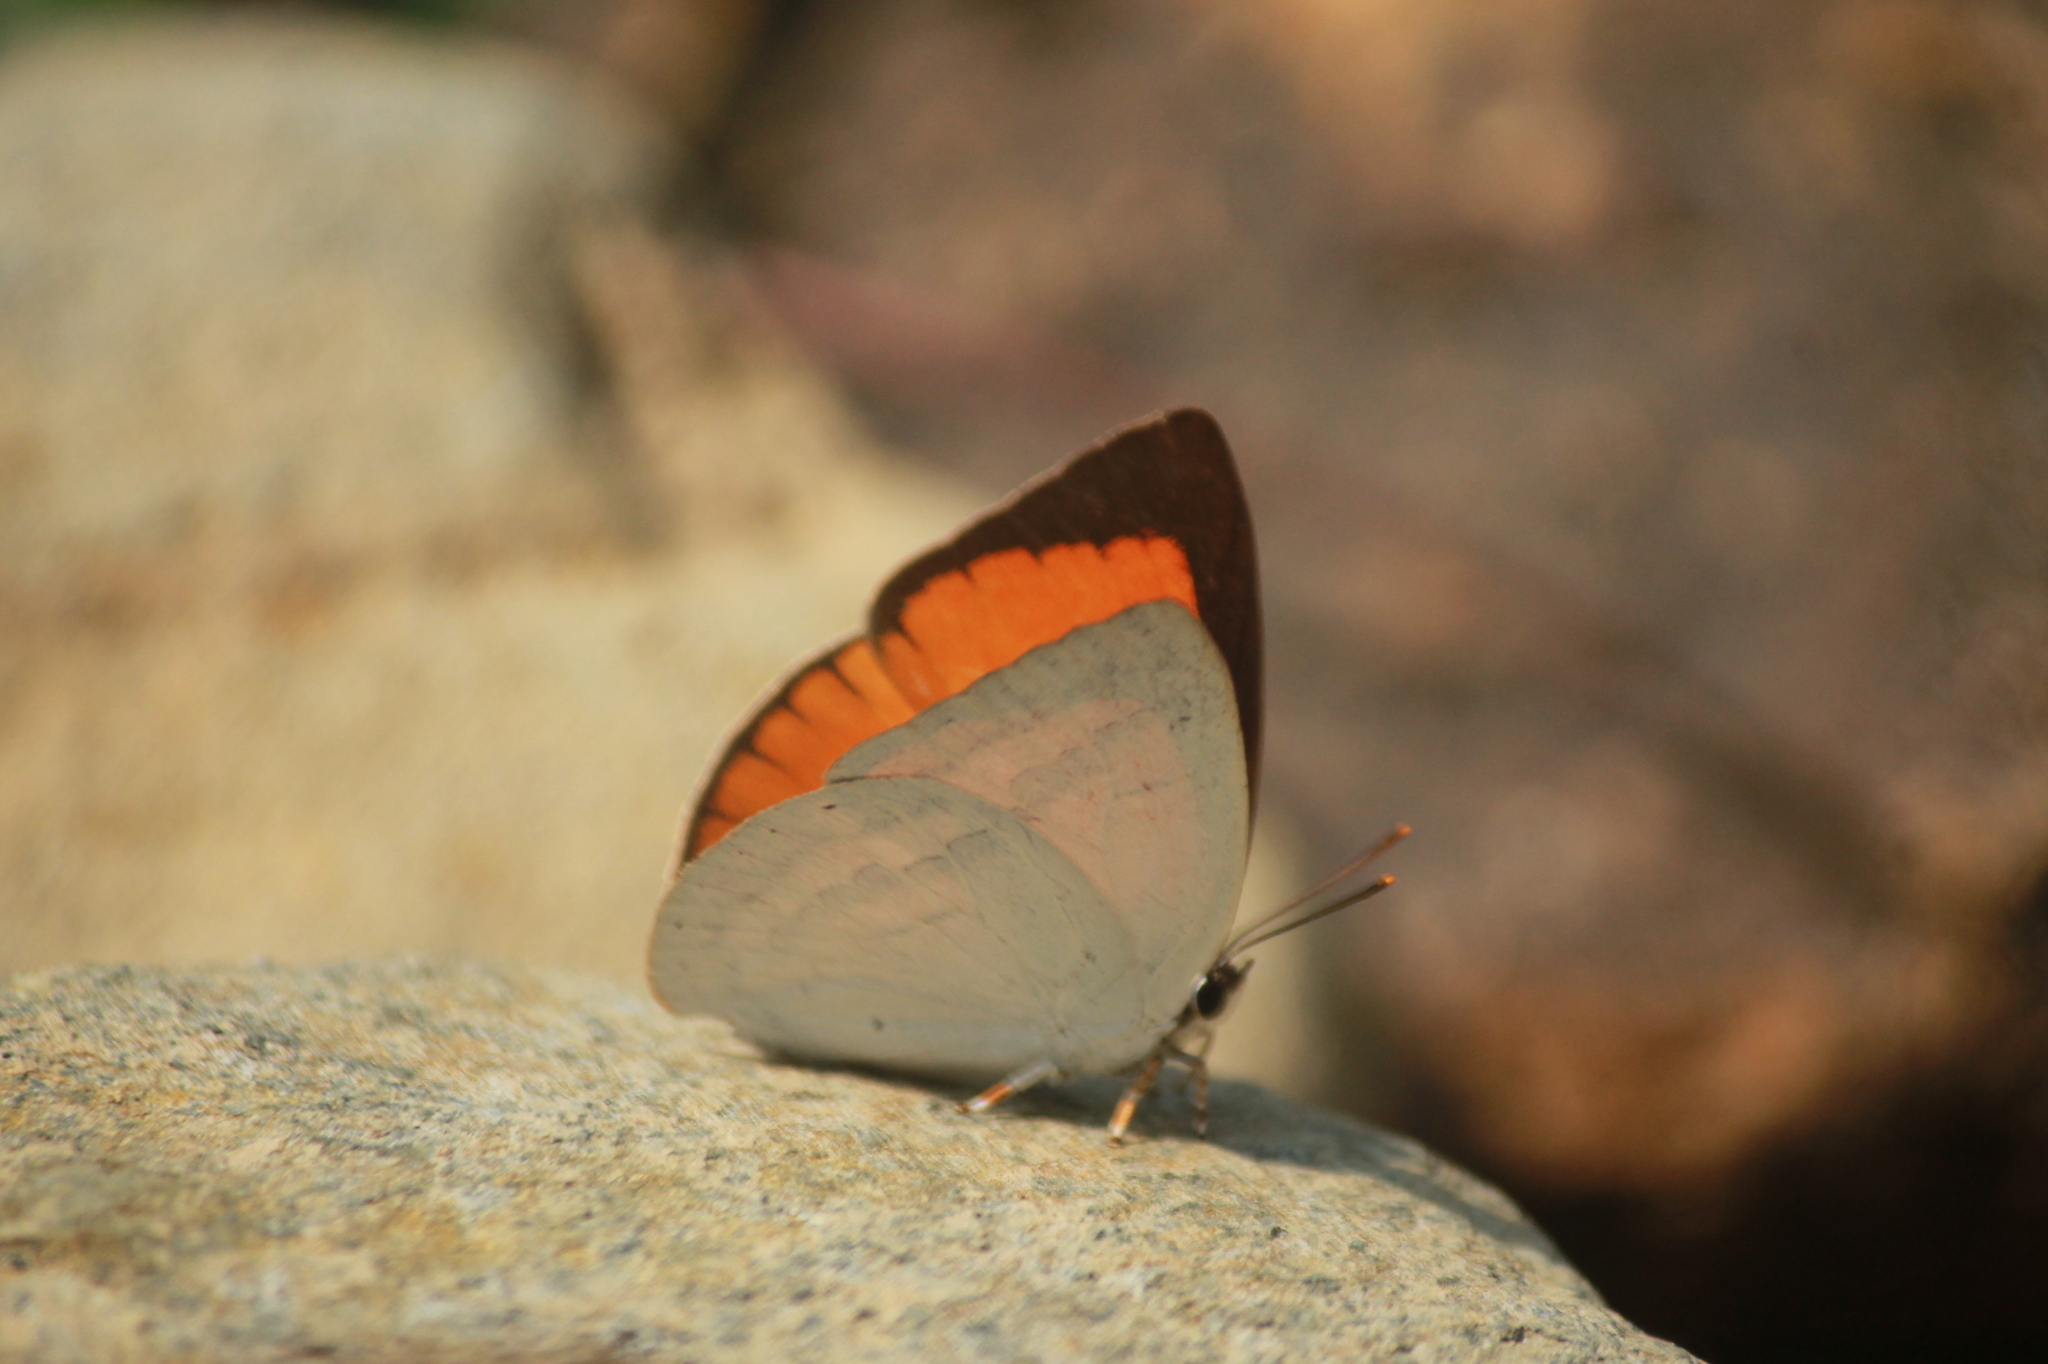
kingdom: Animalia
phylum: Arthropoda
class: Insecta
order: Lepidoptera
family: Lycaenidae
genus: Curetis
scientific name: Curetis thetis
